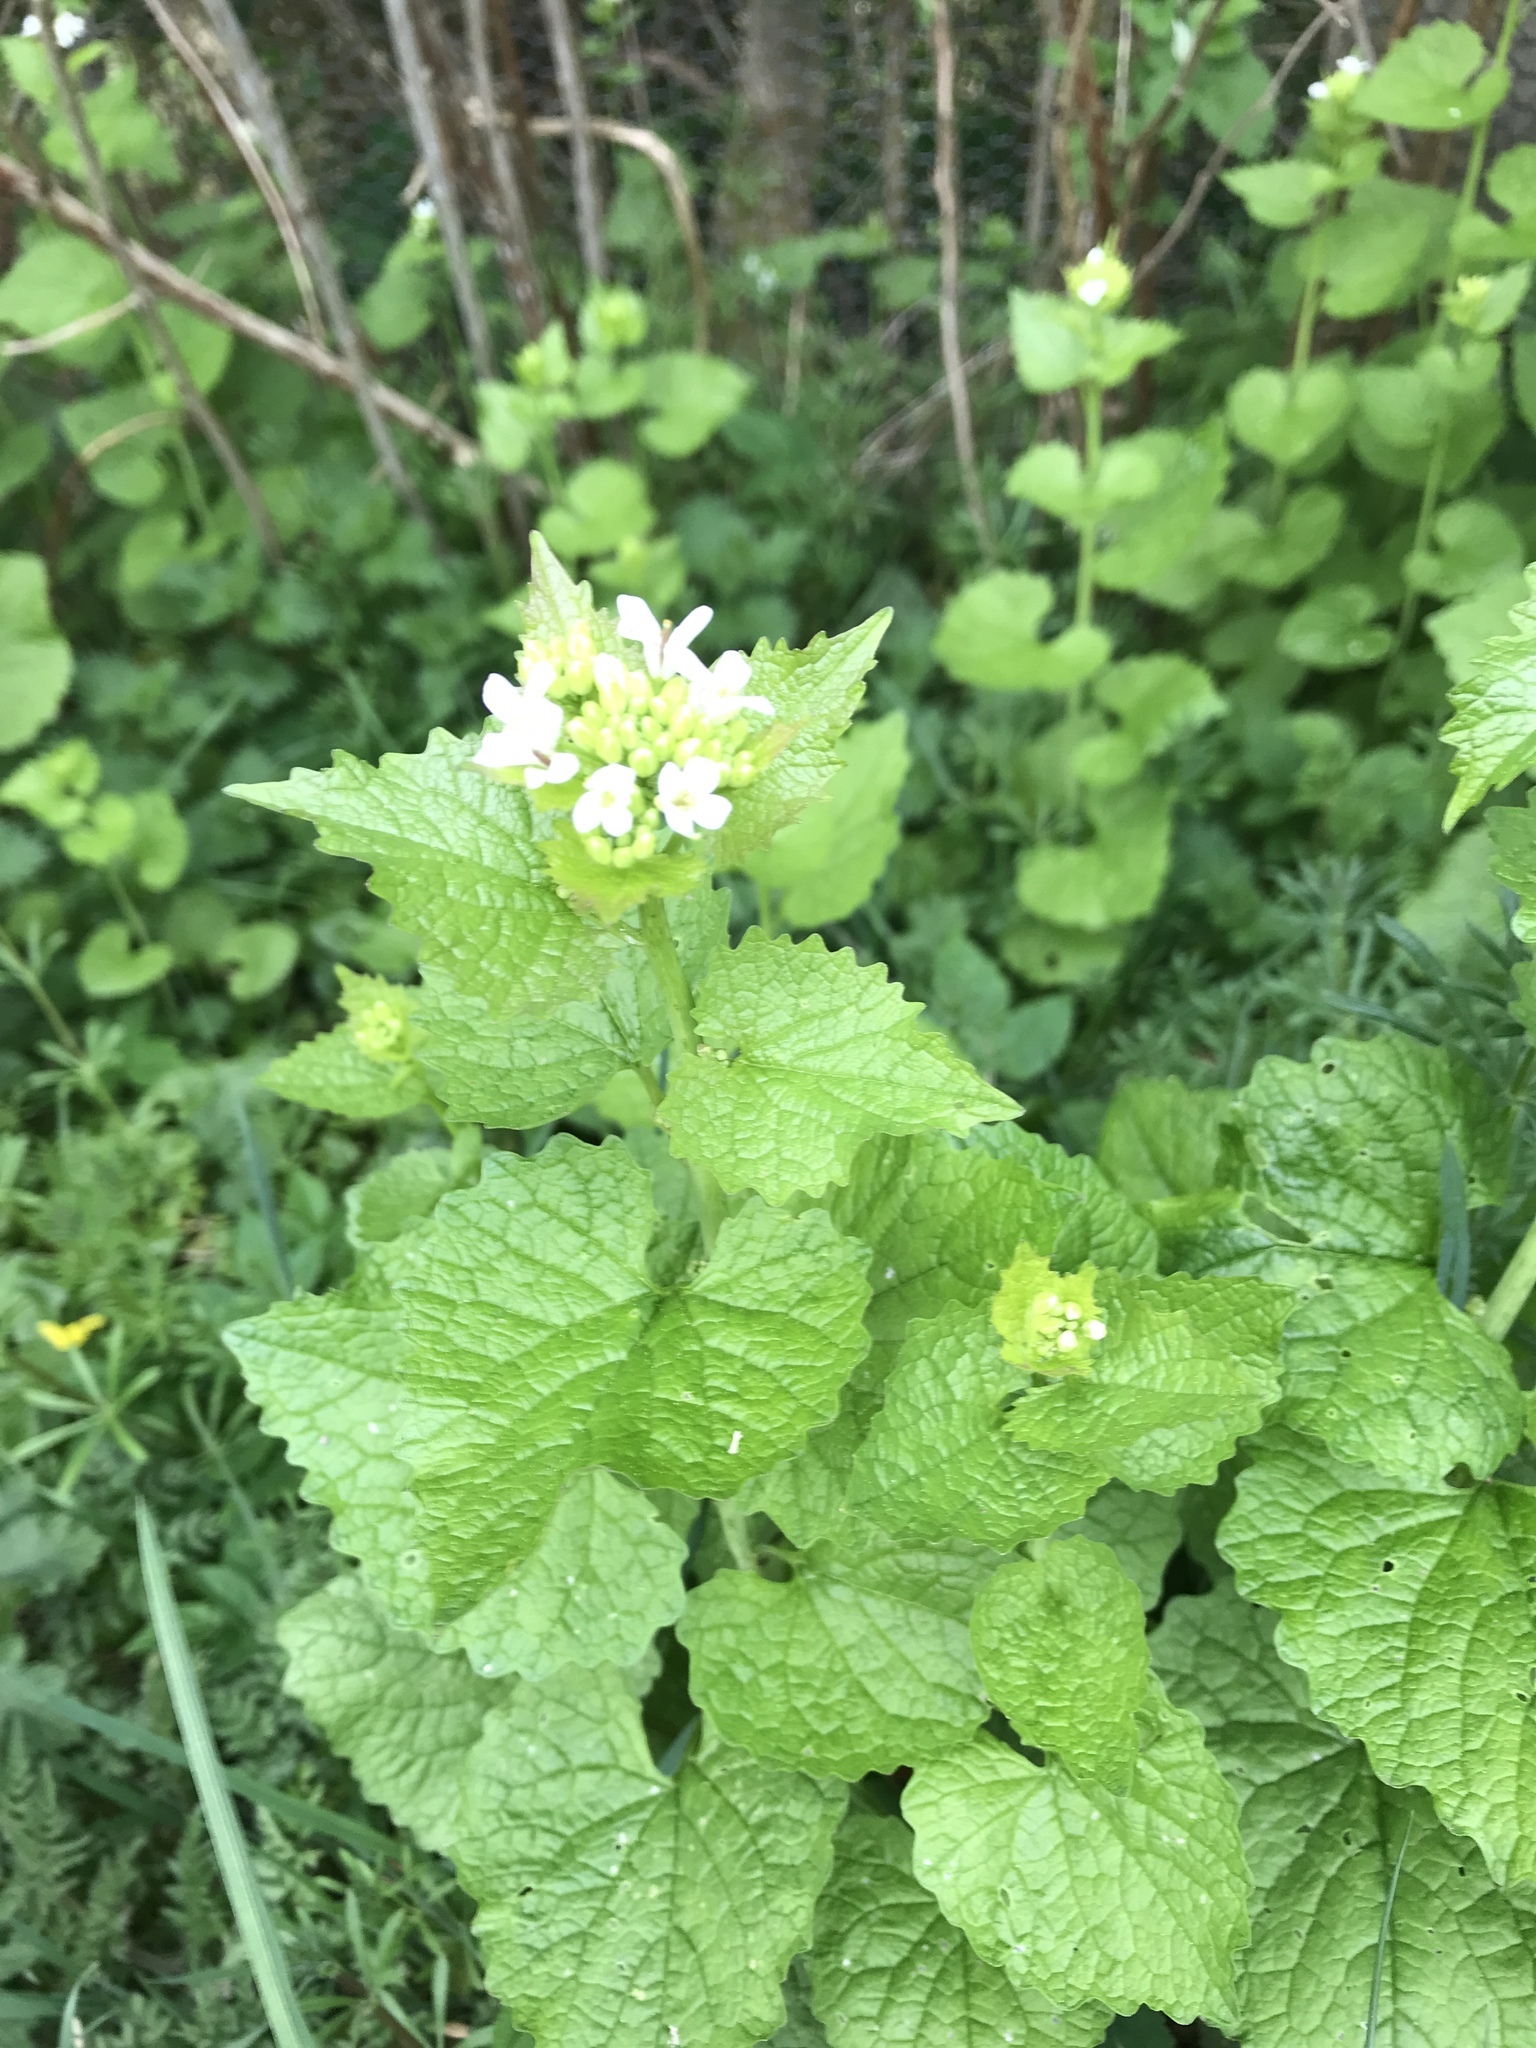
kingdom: Plantae
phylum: Tracheophyta
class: Magnoliopsida
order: Brassicales
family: Brassicaceae
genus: Alliaria
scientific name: Alliaria petiolata
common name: Garlic mustard
